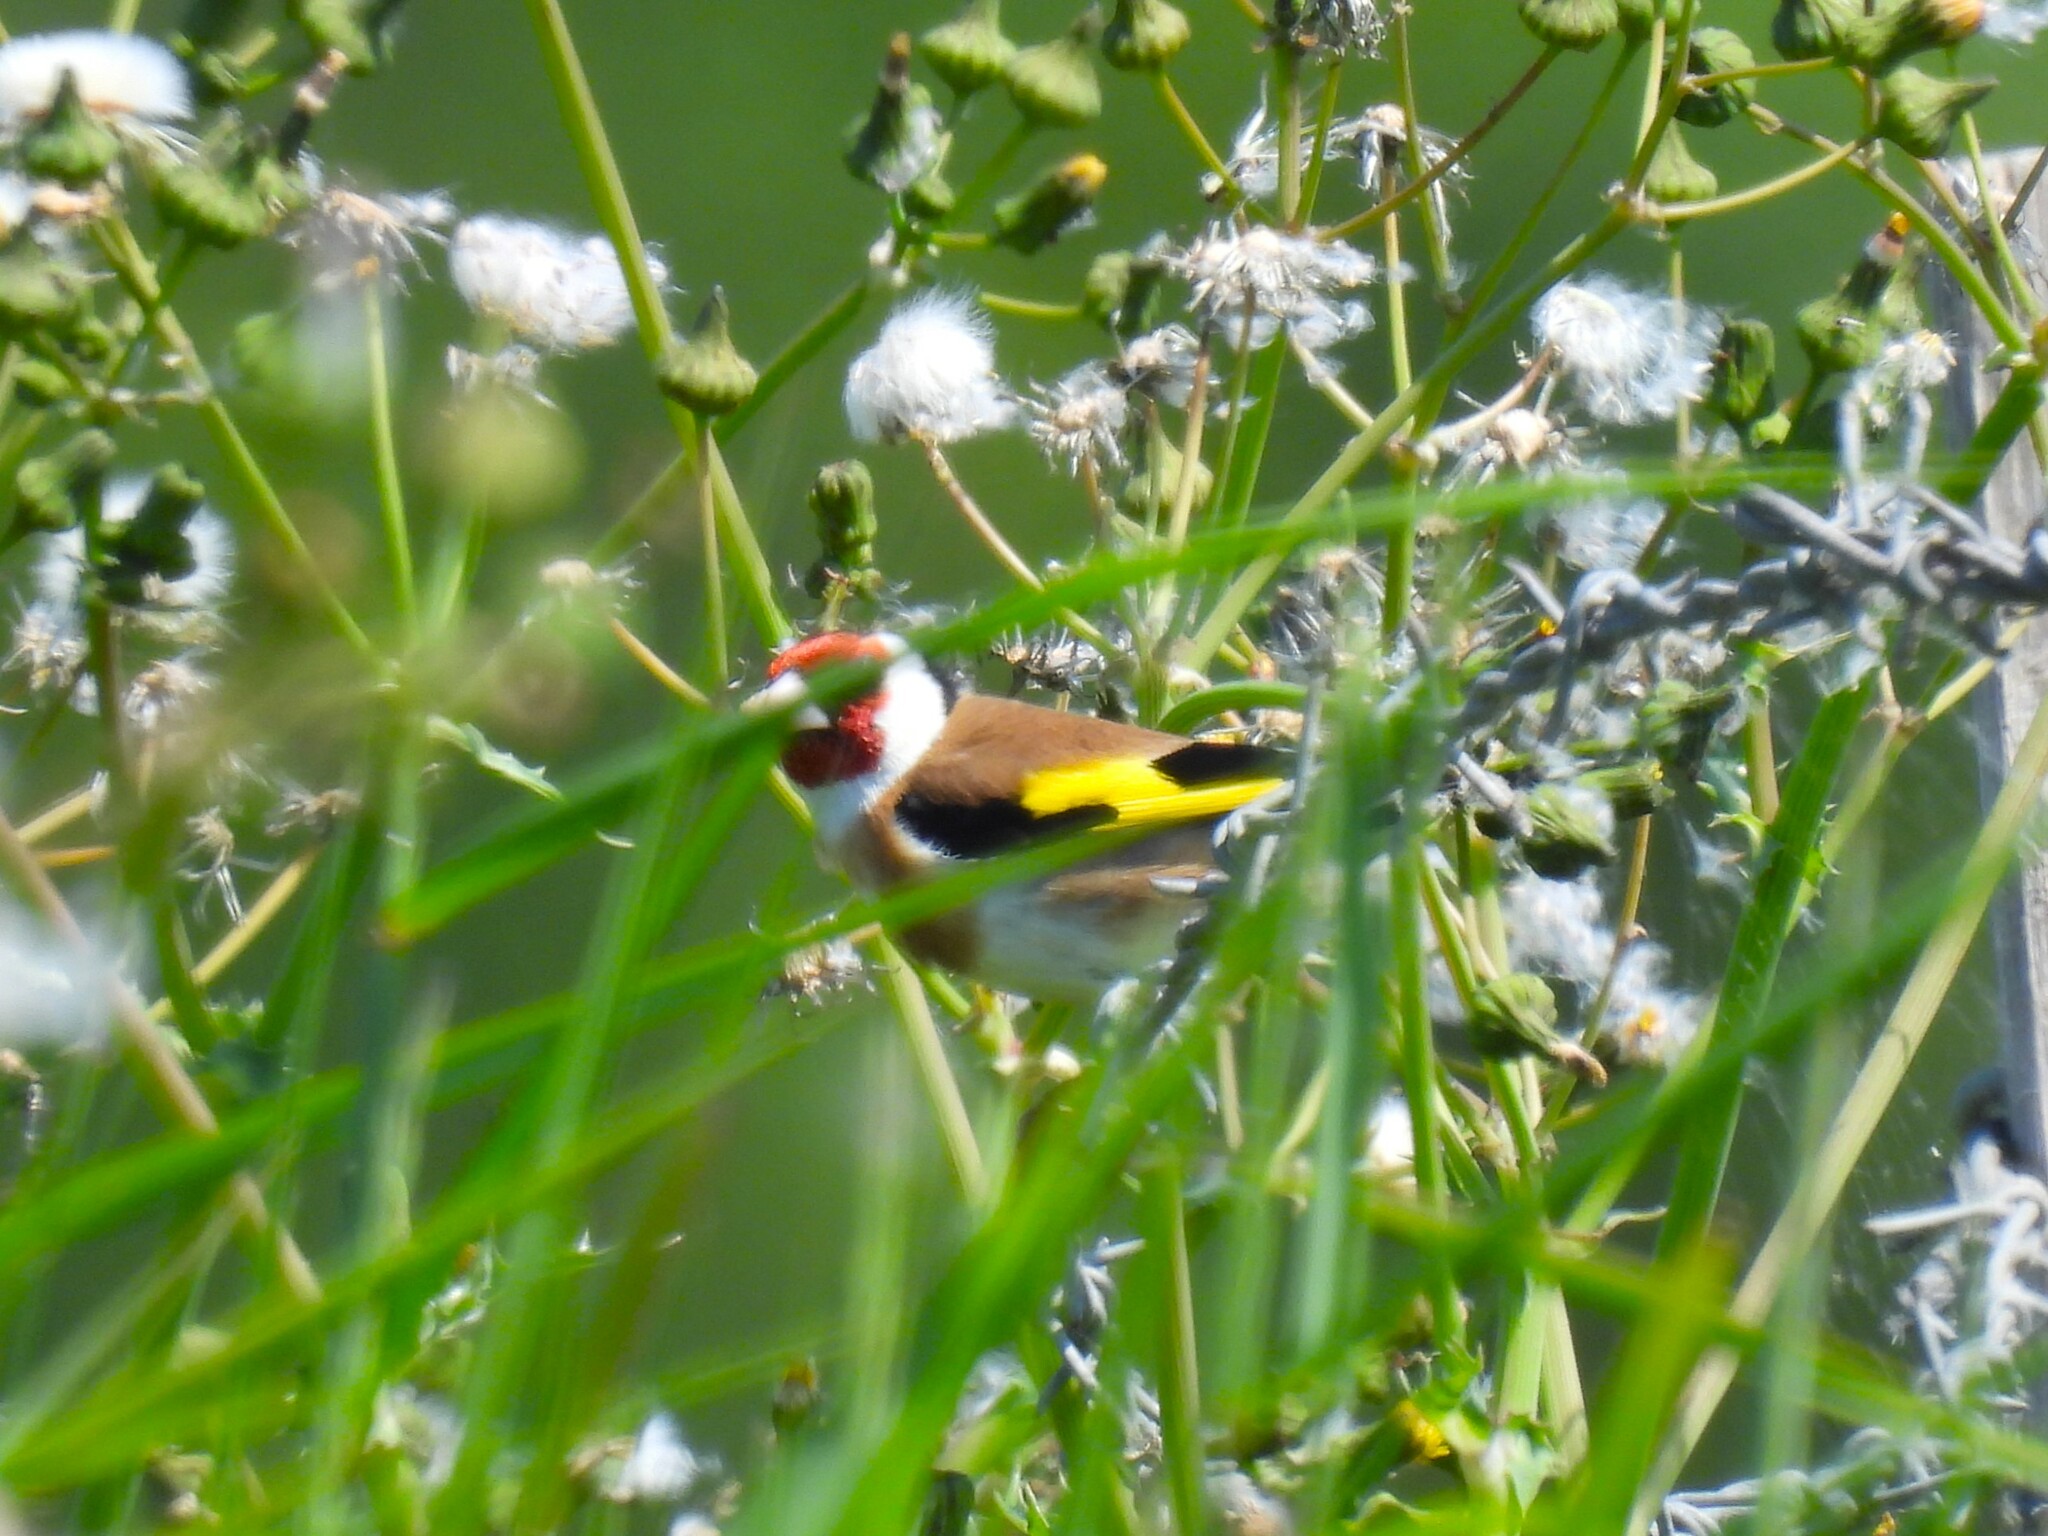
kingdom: Animalia
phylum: Chordata
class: Aves
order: Passeriformes
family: Fringillidae
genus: Carduelis
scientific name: Carduelis carduelis
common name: European goldfinch
